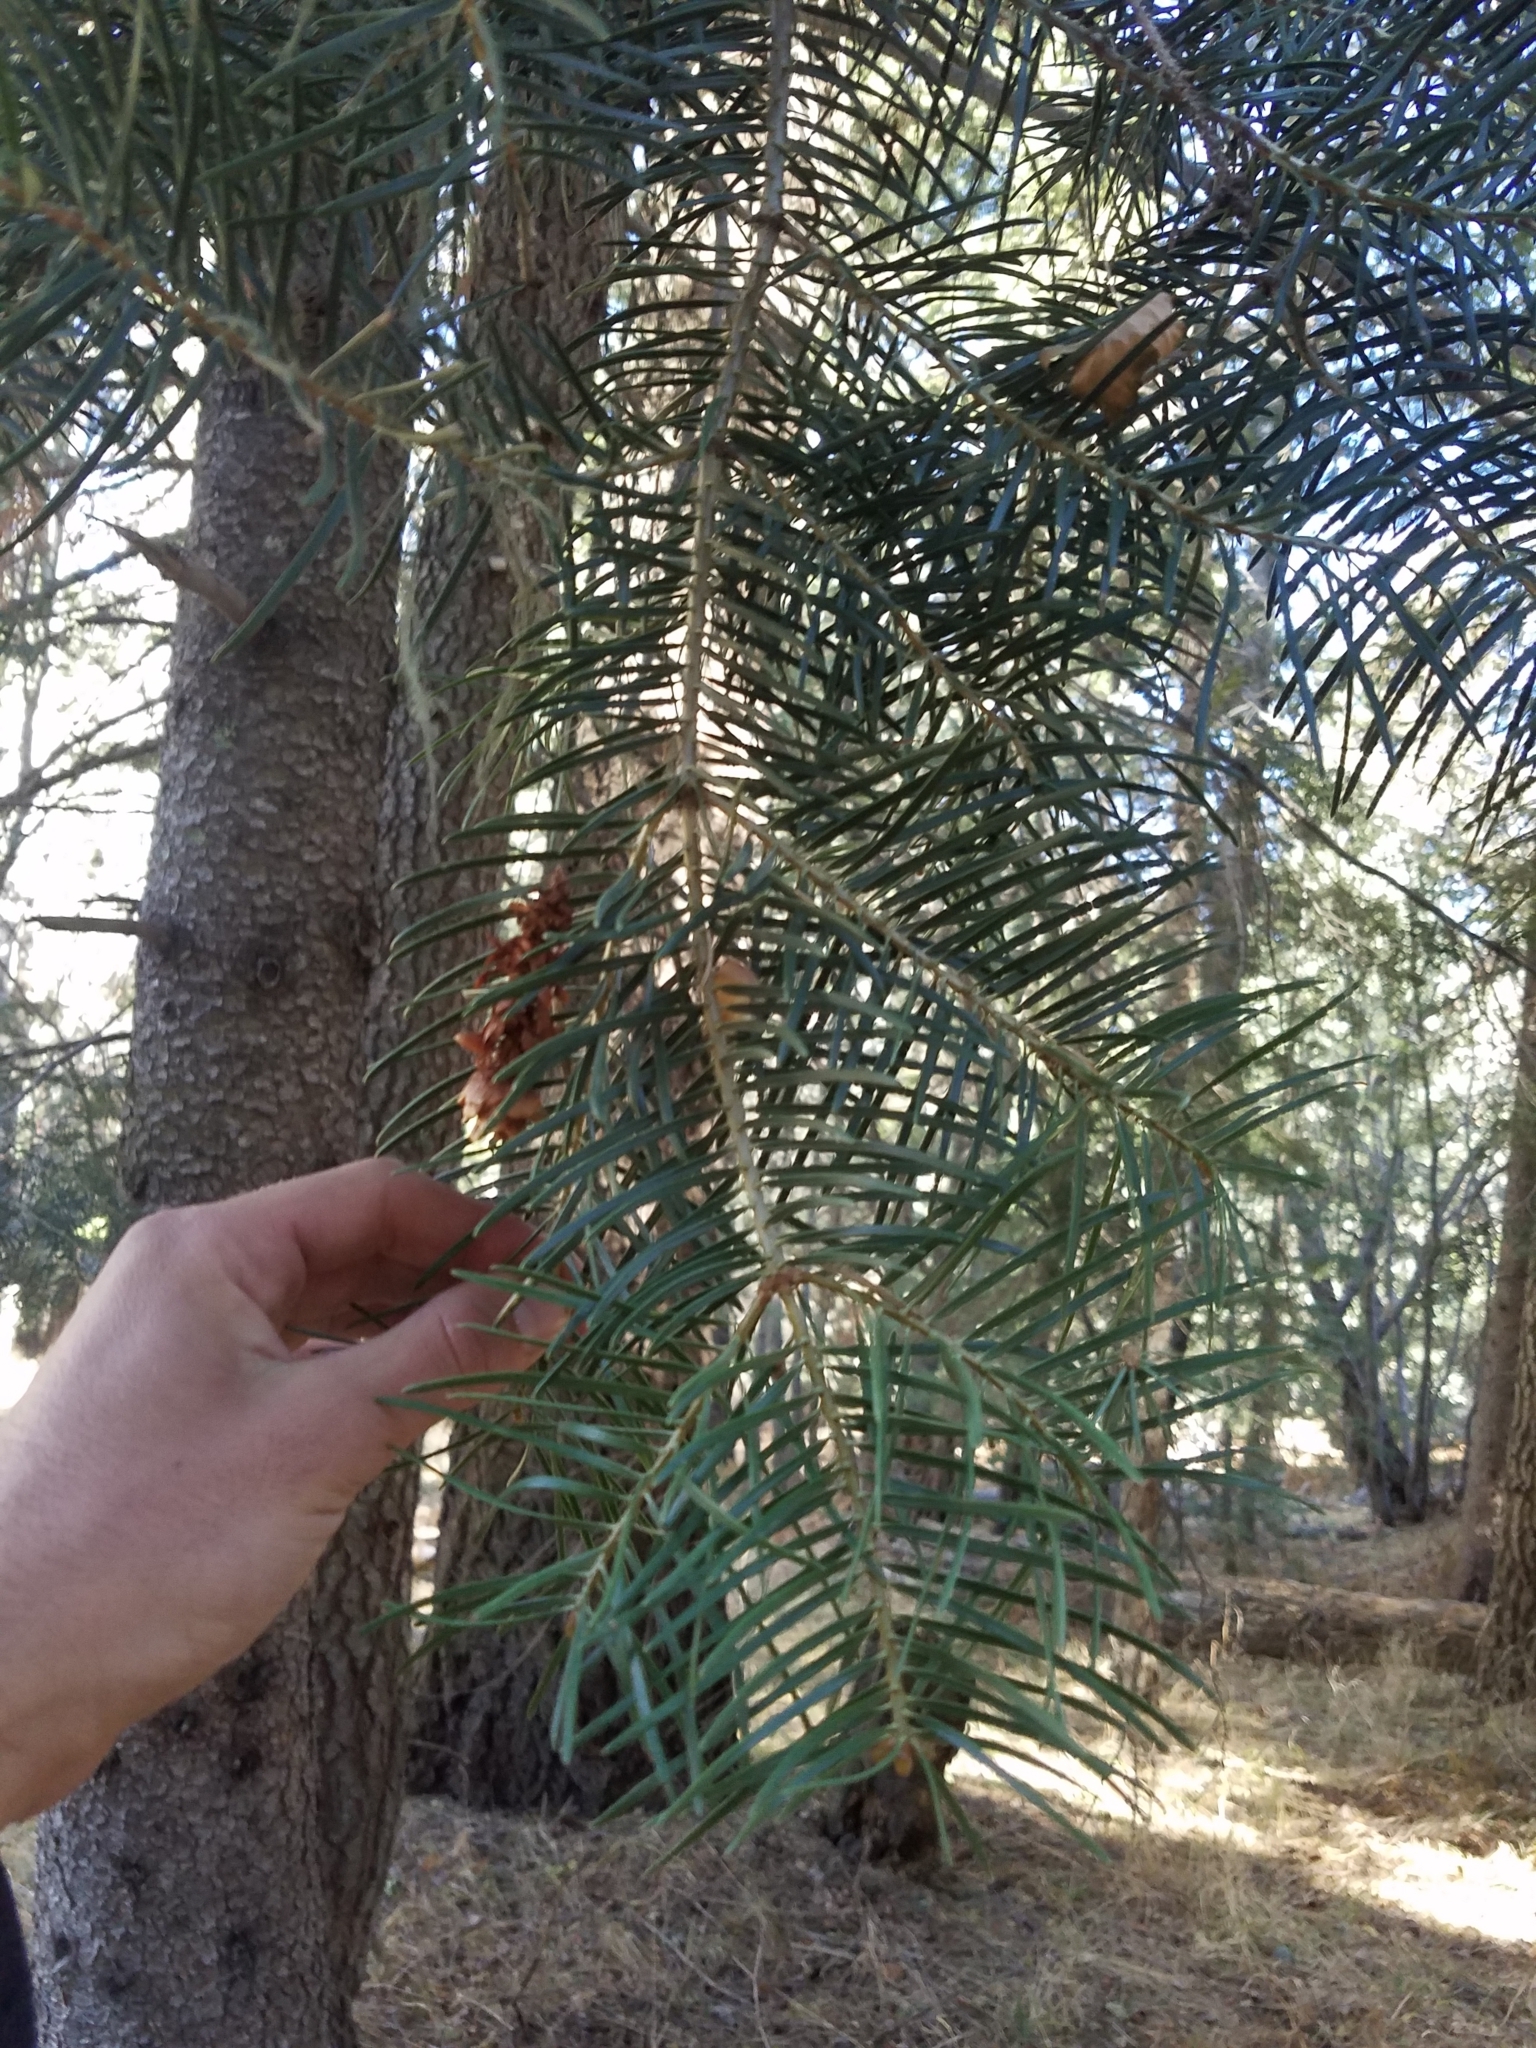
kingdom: Plantae
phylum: Tracheophyta
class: Pinopsida
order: Pinales
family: Pinaceae
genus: Abies
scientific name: Abies concolor
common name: Colorado fir
